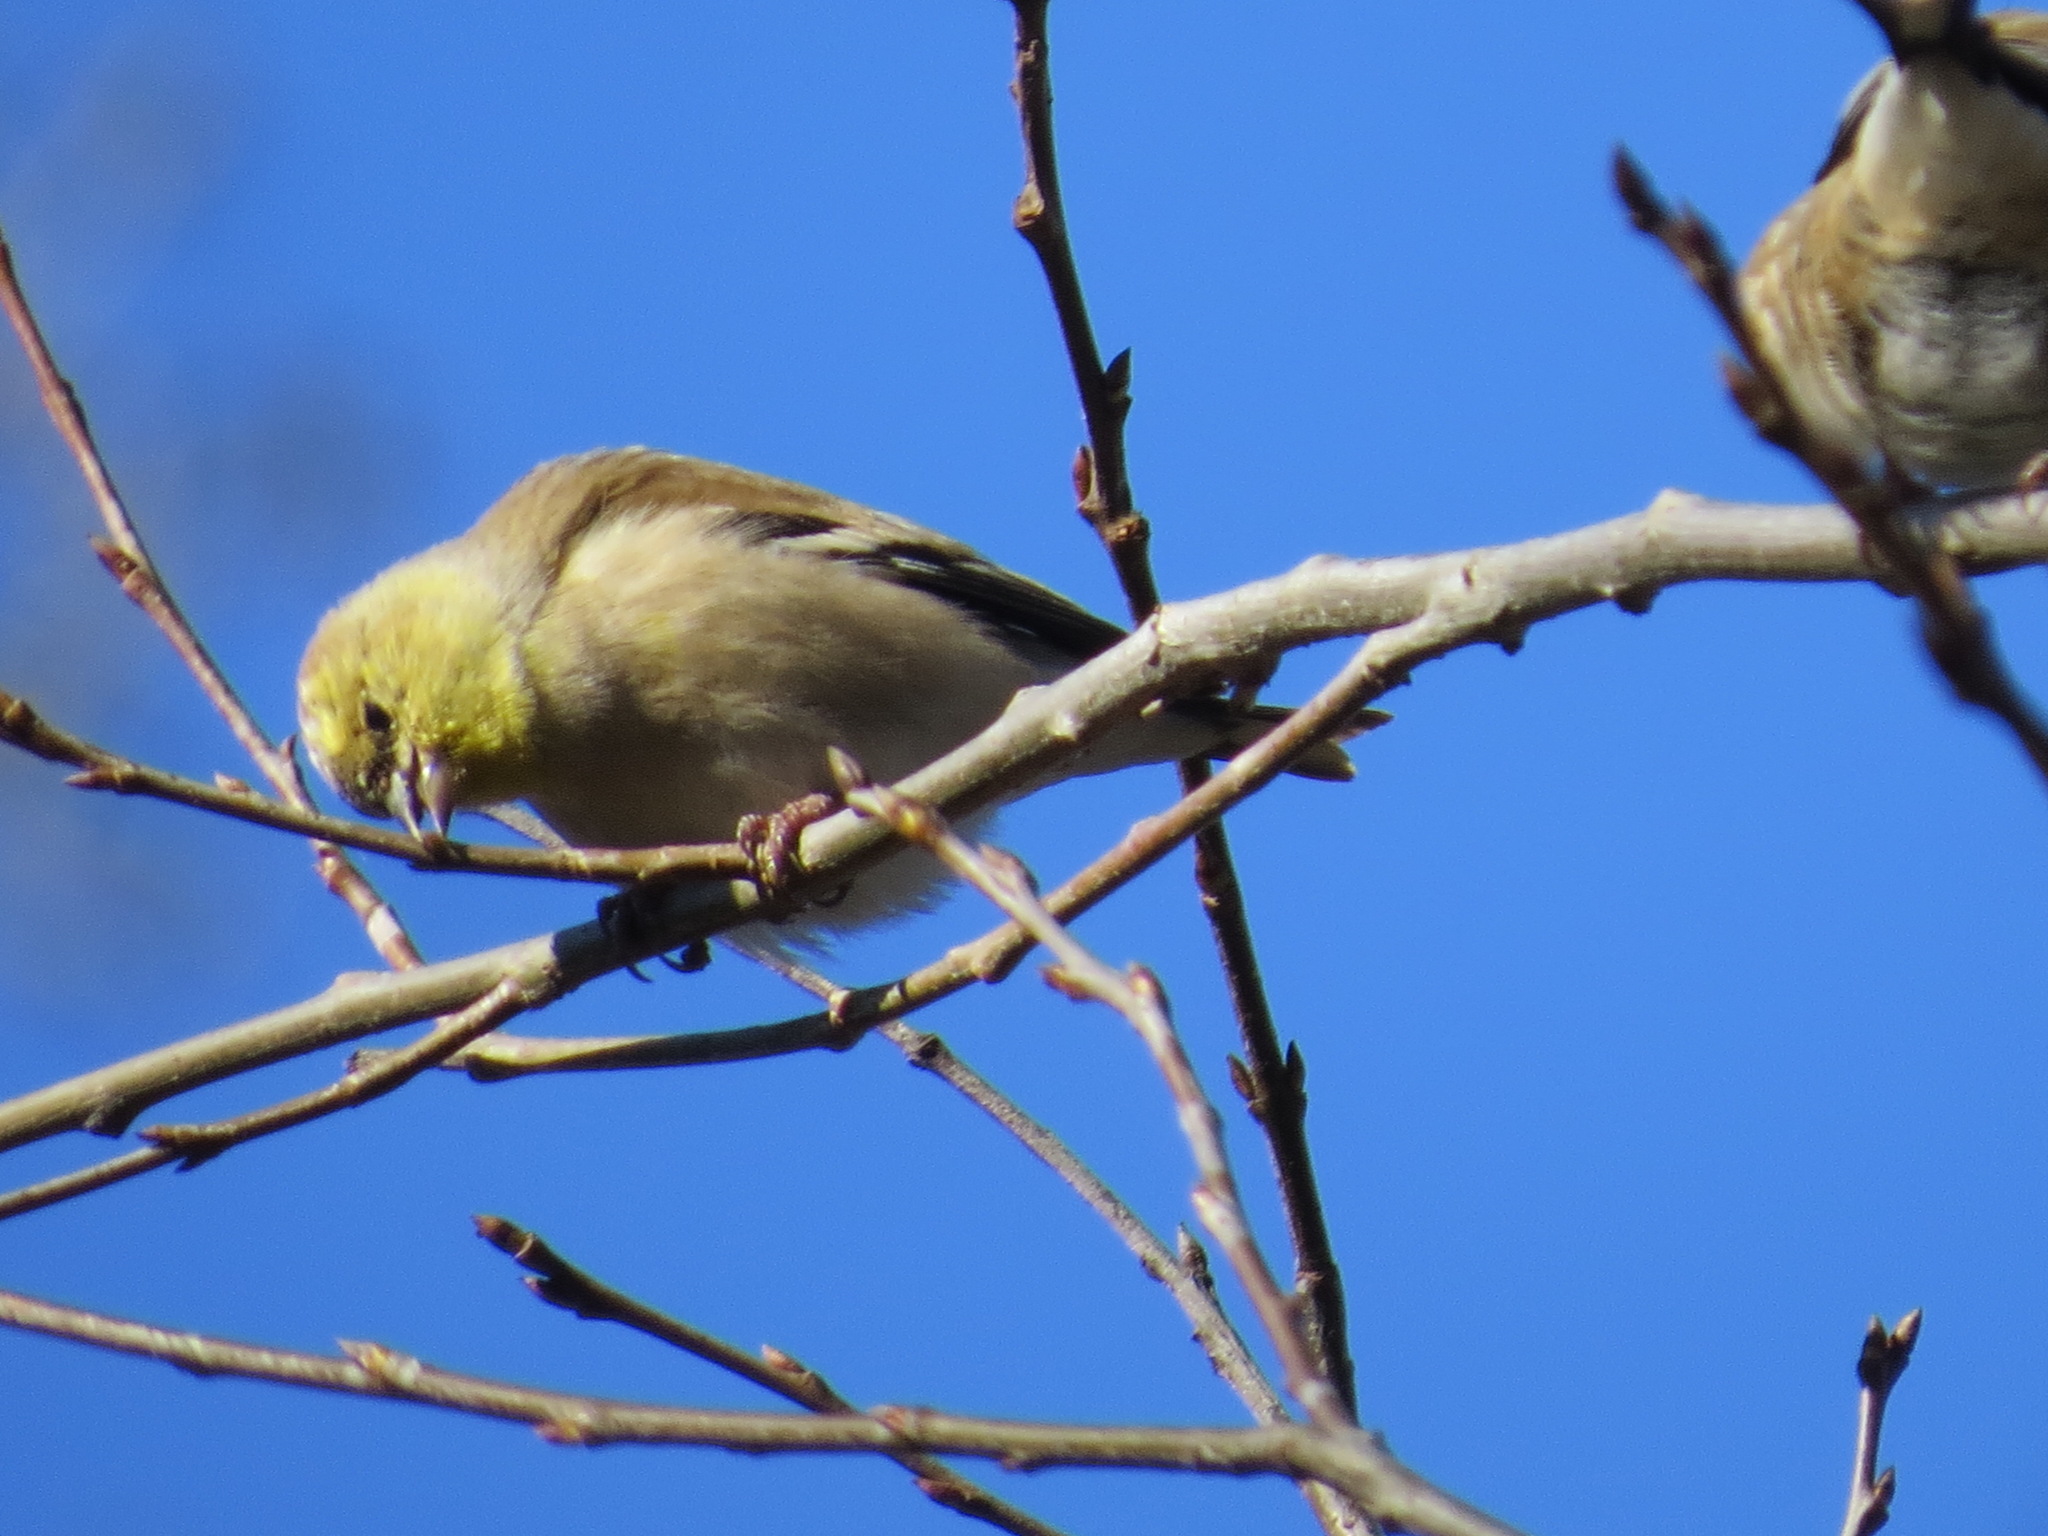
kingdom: Animalia
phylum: Chordata
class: Aves
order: Passeriformes
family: Fringillidae
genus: Spinus
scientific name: Spinus tristis
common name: American goldfinch
